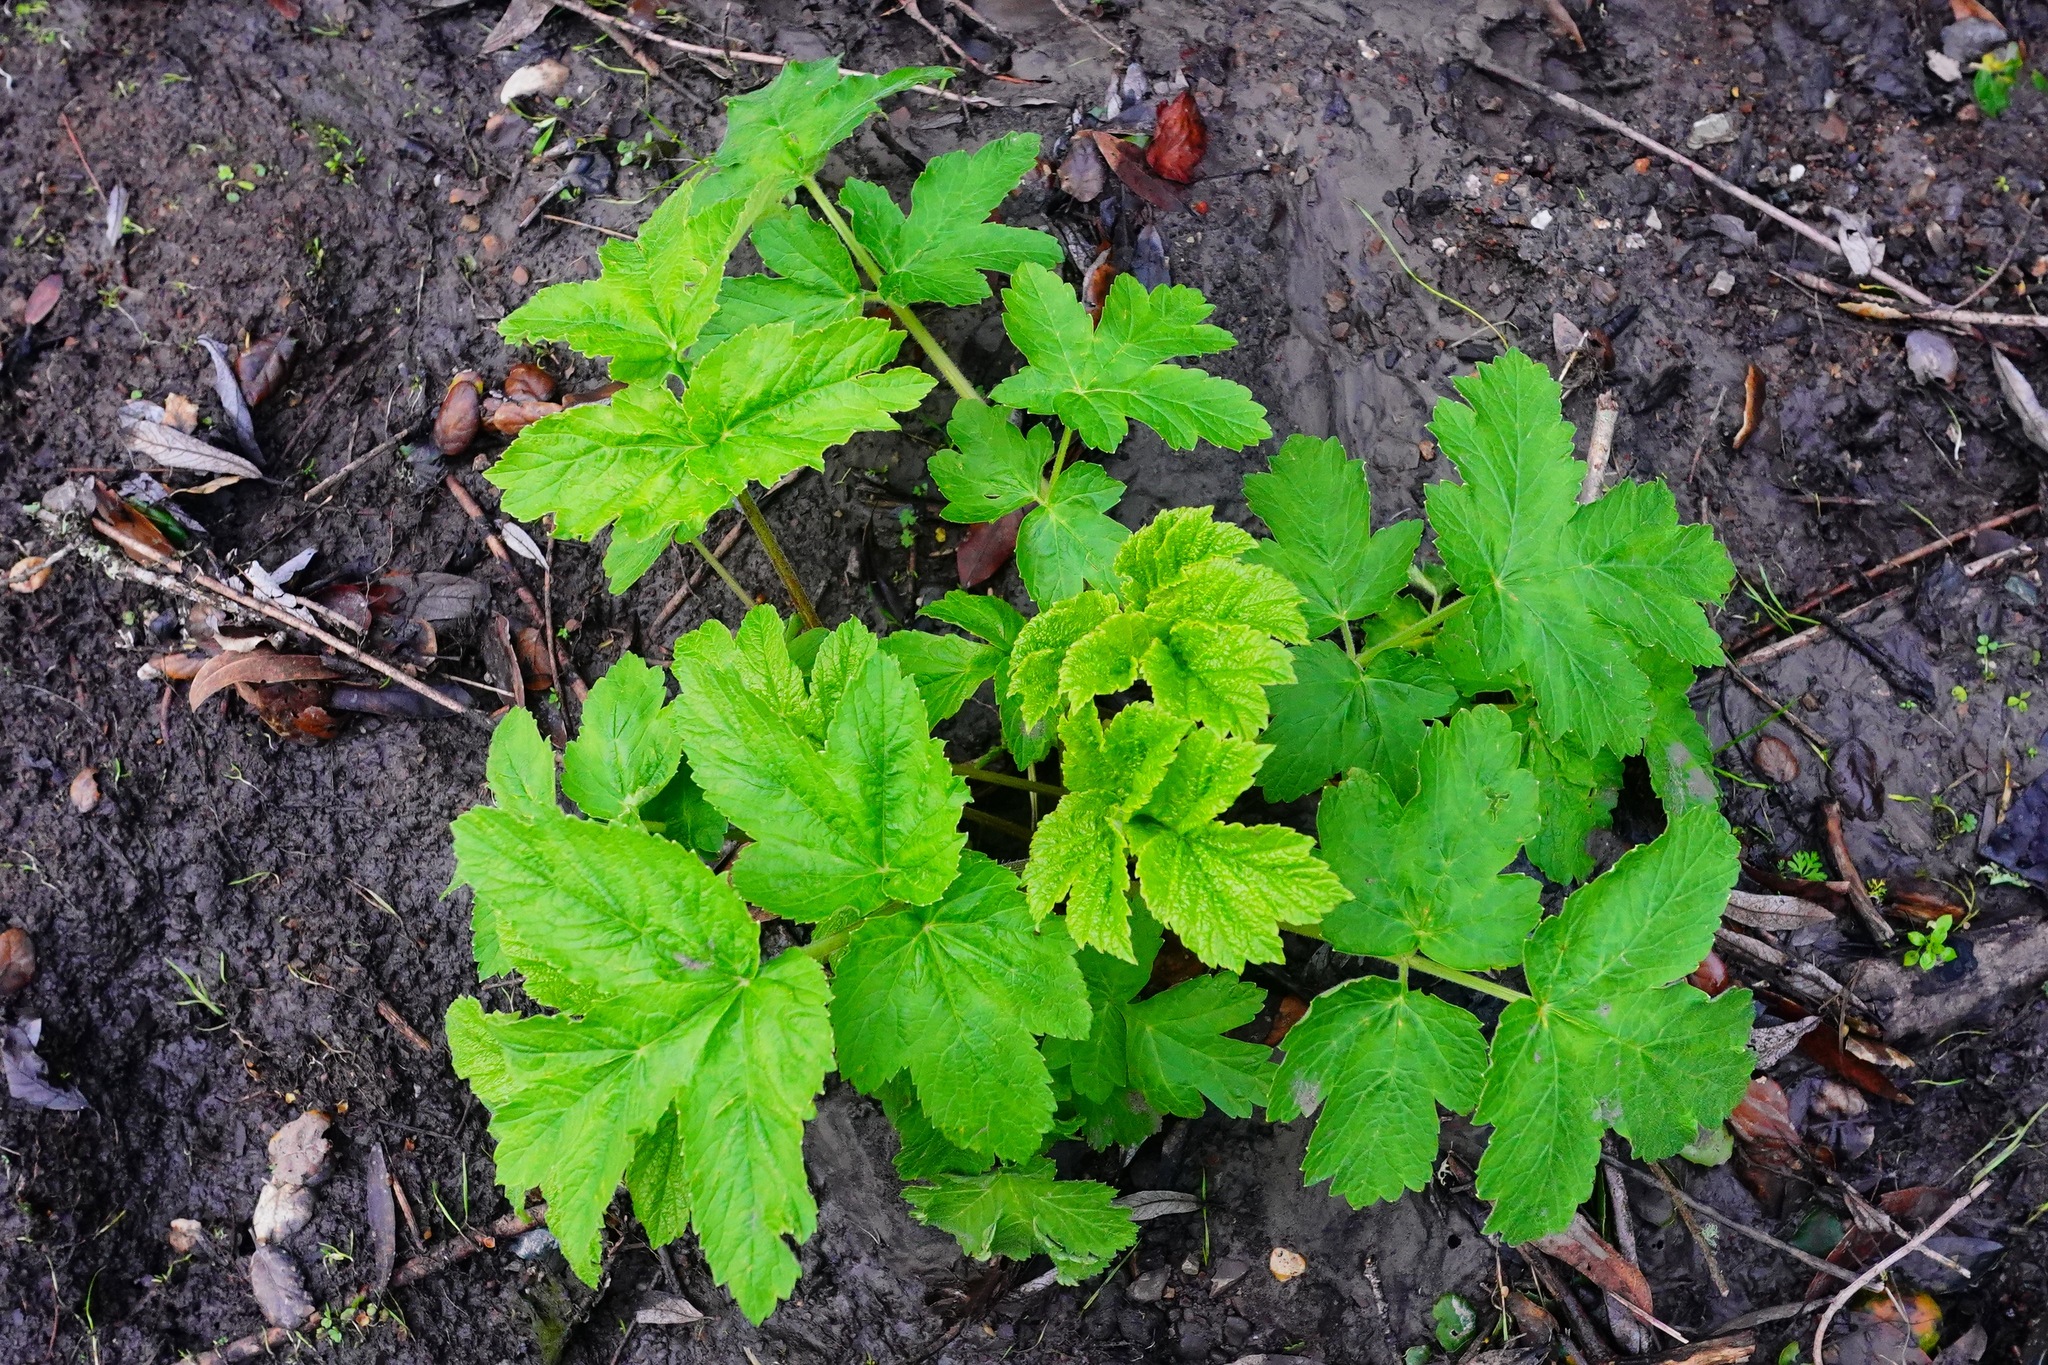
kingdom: Plantae
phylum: Tracheophyta
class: Magnoliopsida
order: Apiales
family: Apiaceae
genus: Heracleum
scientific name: Heracleum maximum
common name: American cow parsnip
